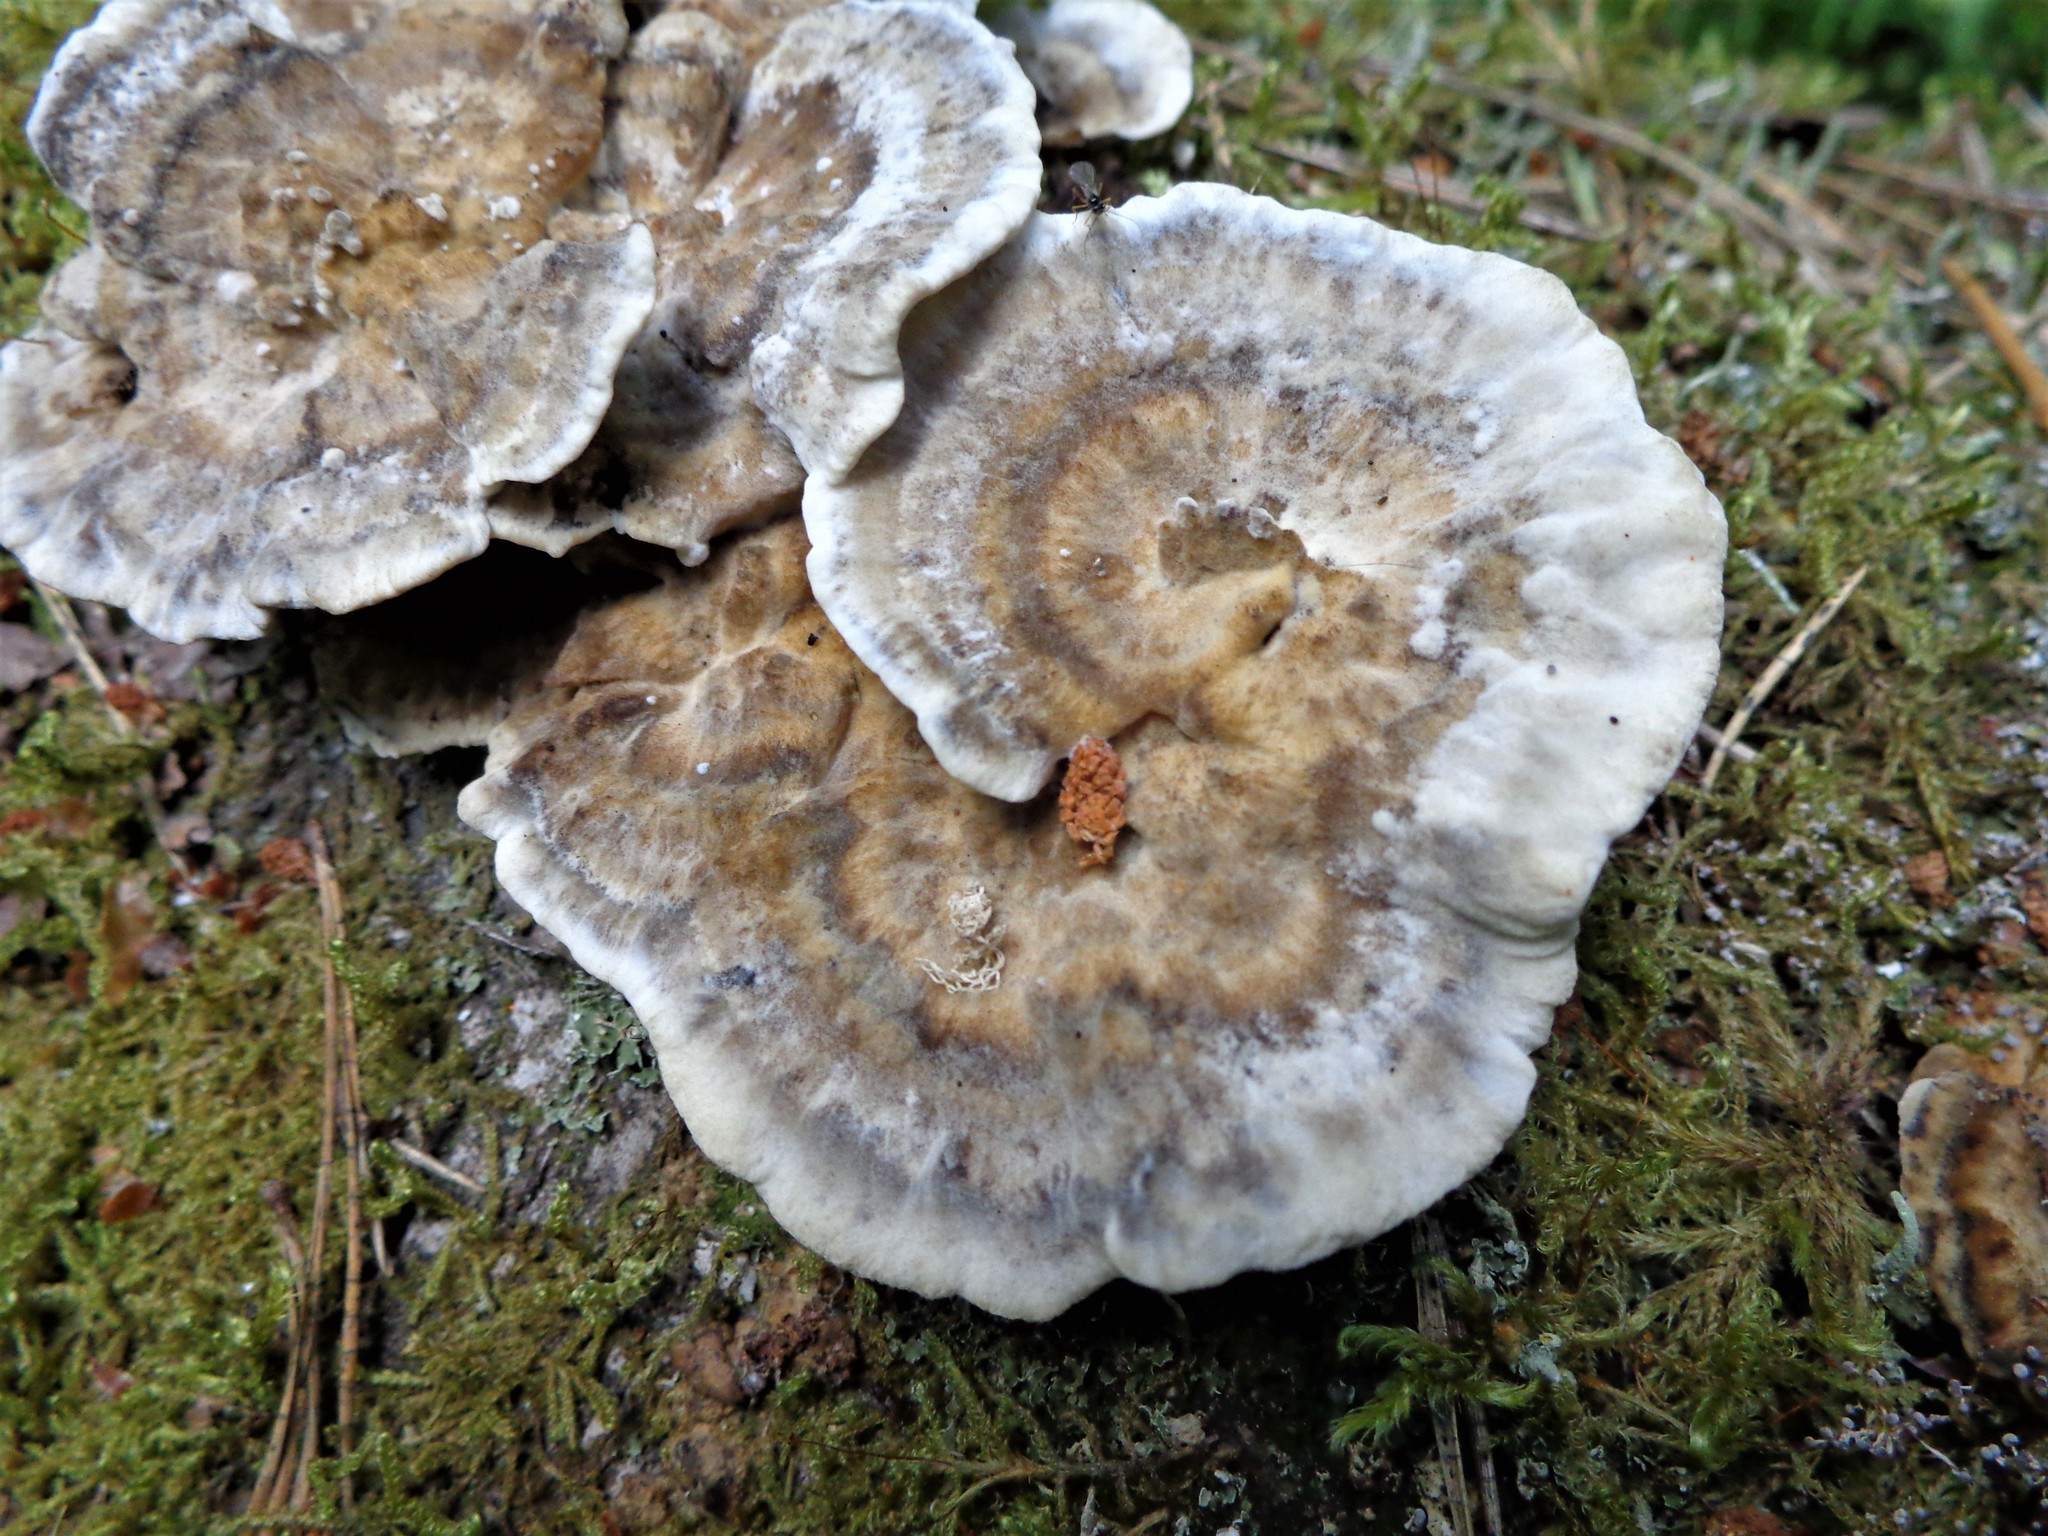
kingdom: Fungi
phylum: Basidiomycota
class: Agaricomycetes
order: Polyporales
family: Phanerochaetaceae
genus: Bjerkandera
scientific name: Bjerkandera adusta
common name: Smoky bracket
